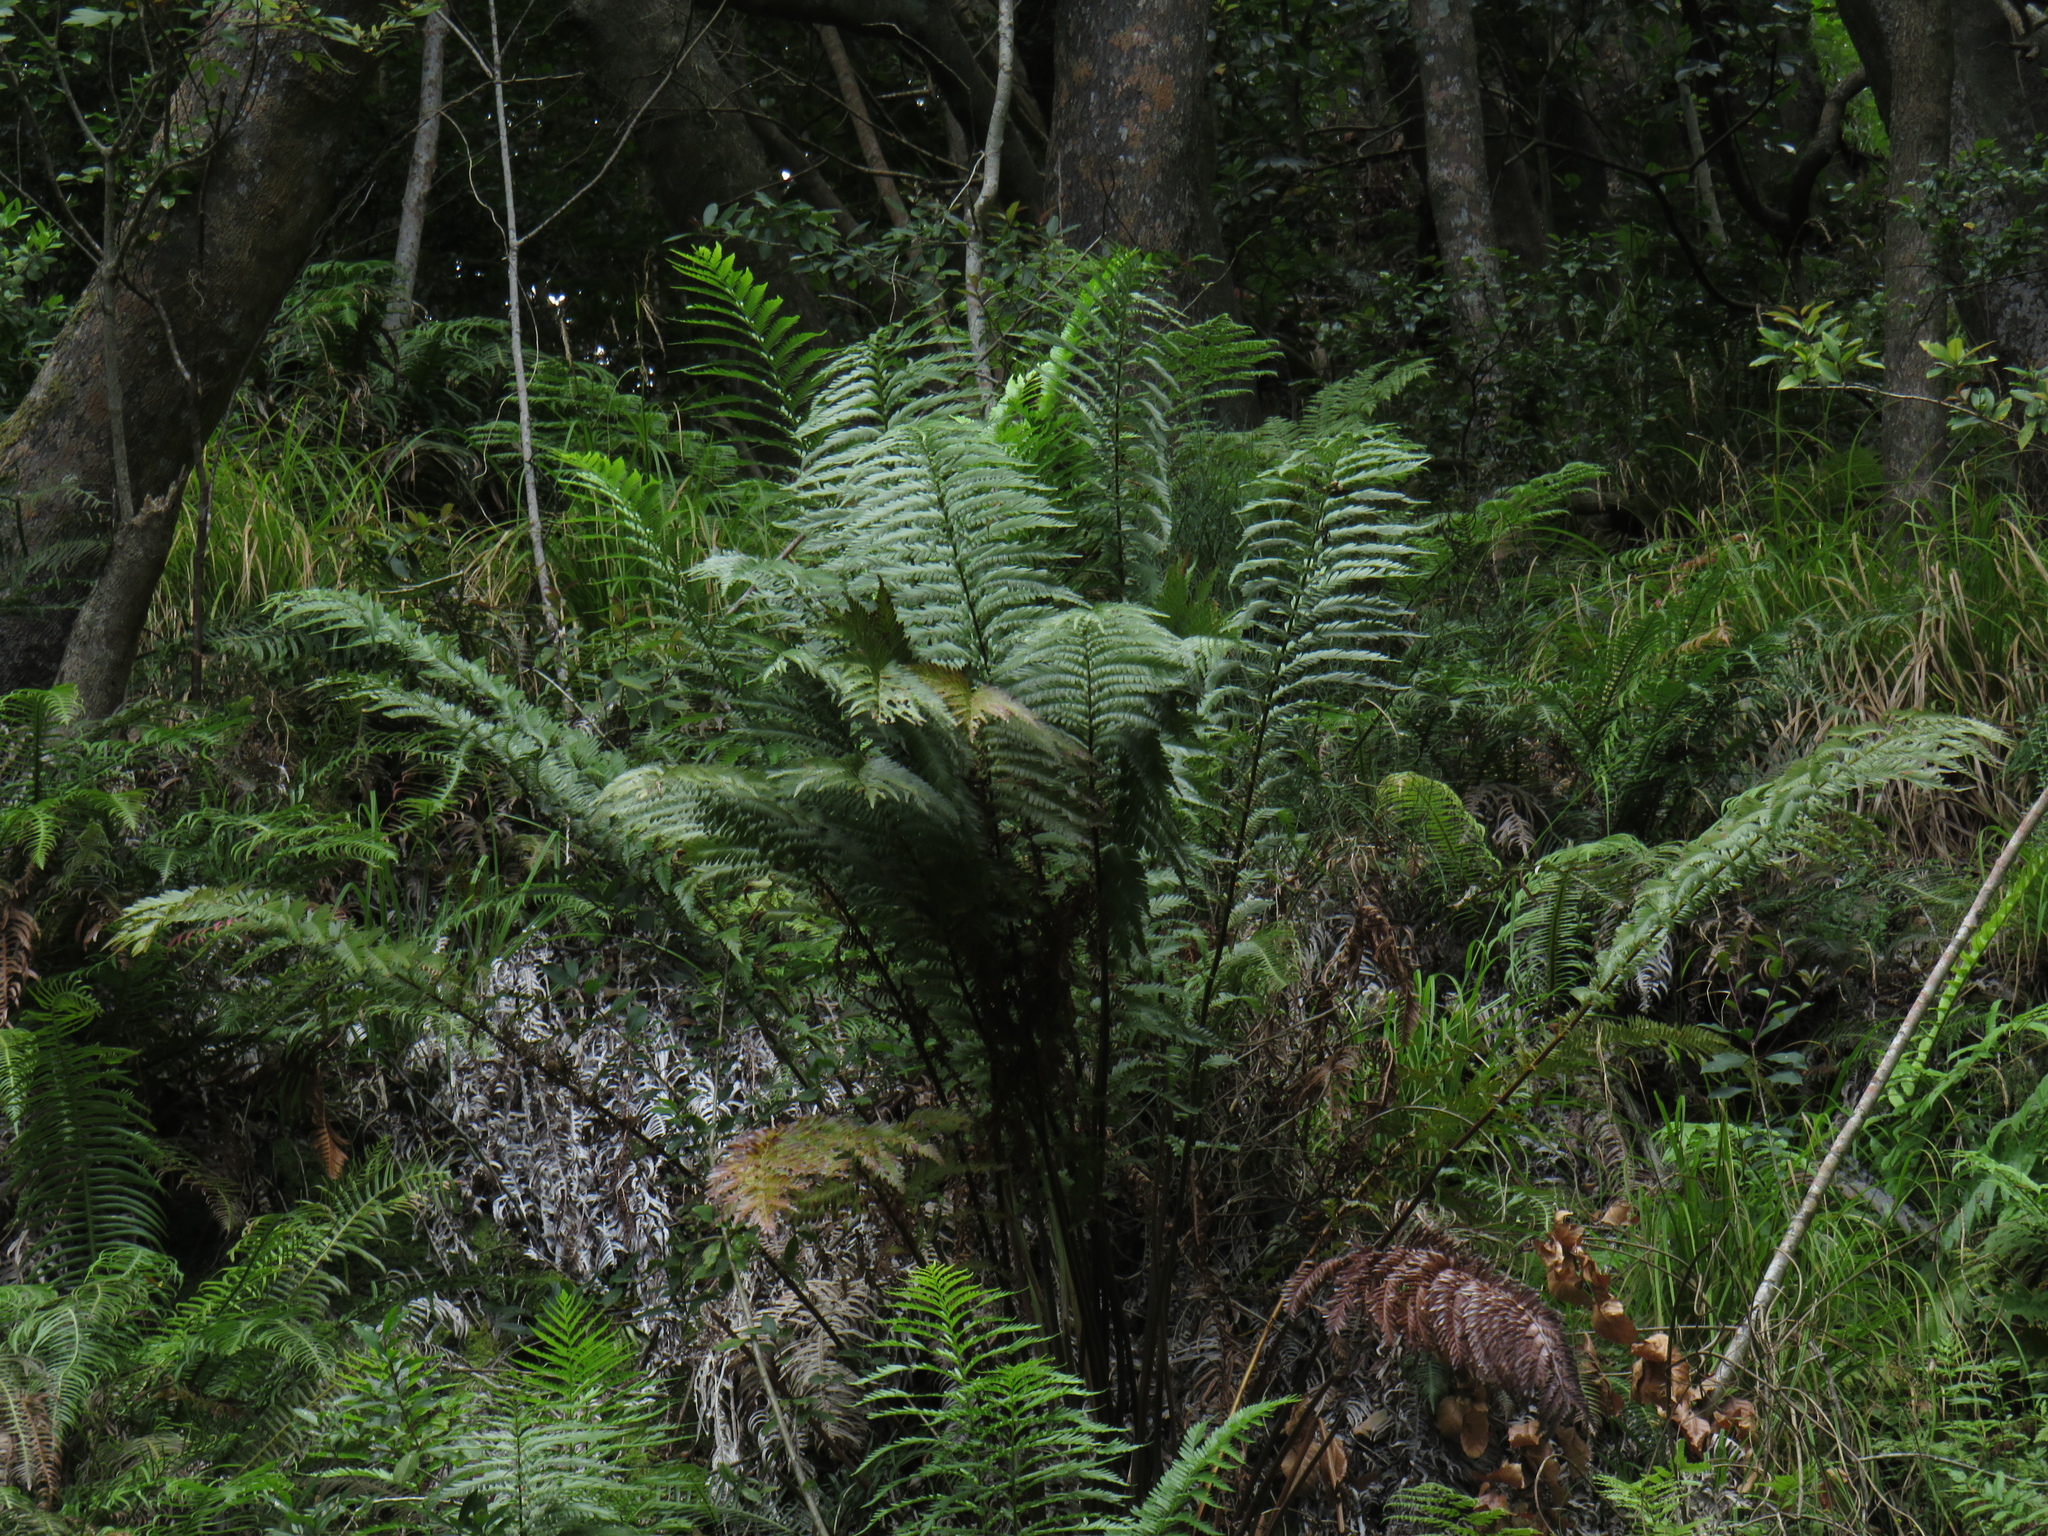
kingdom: Plantae
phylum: Tracheophyta
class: Polypodiopsida
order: Osmundales
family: Osmundaceae
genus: Todea
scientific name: Todea barbara
